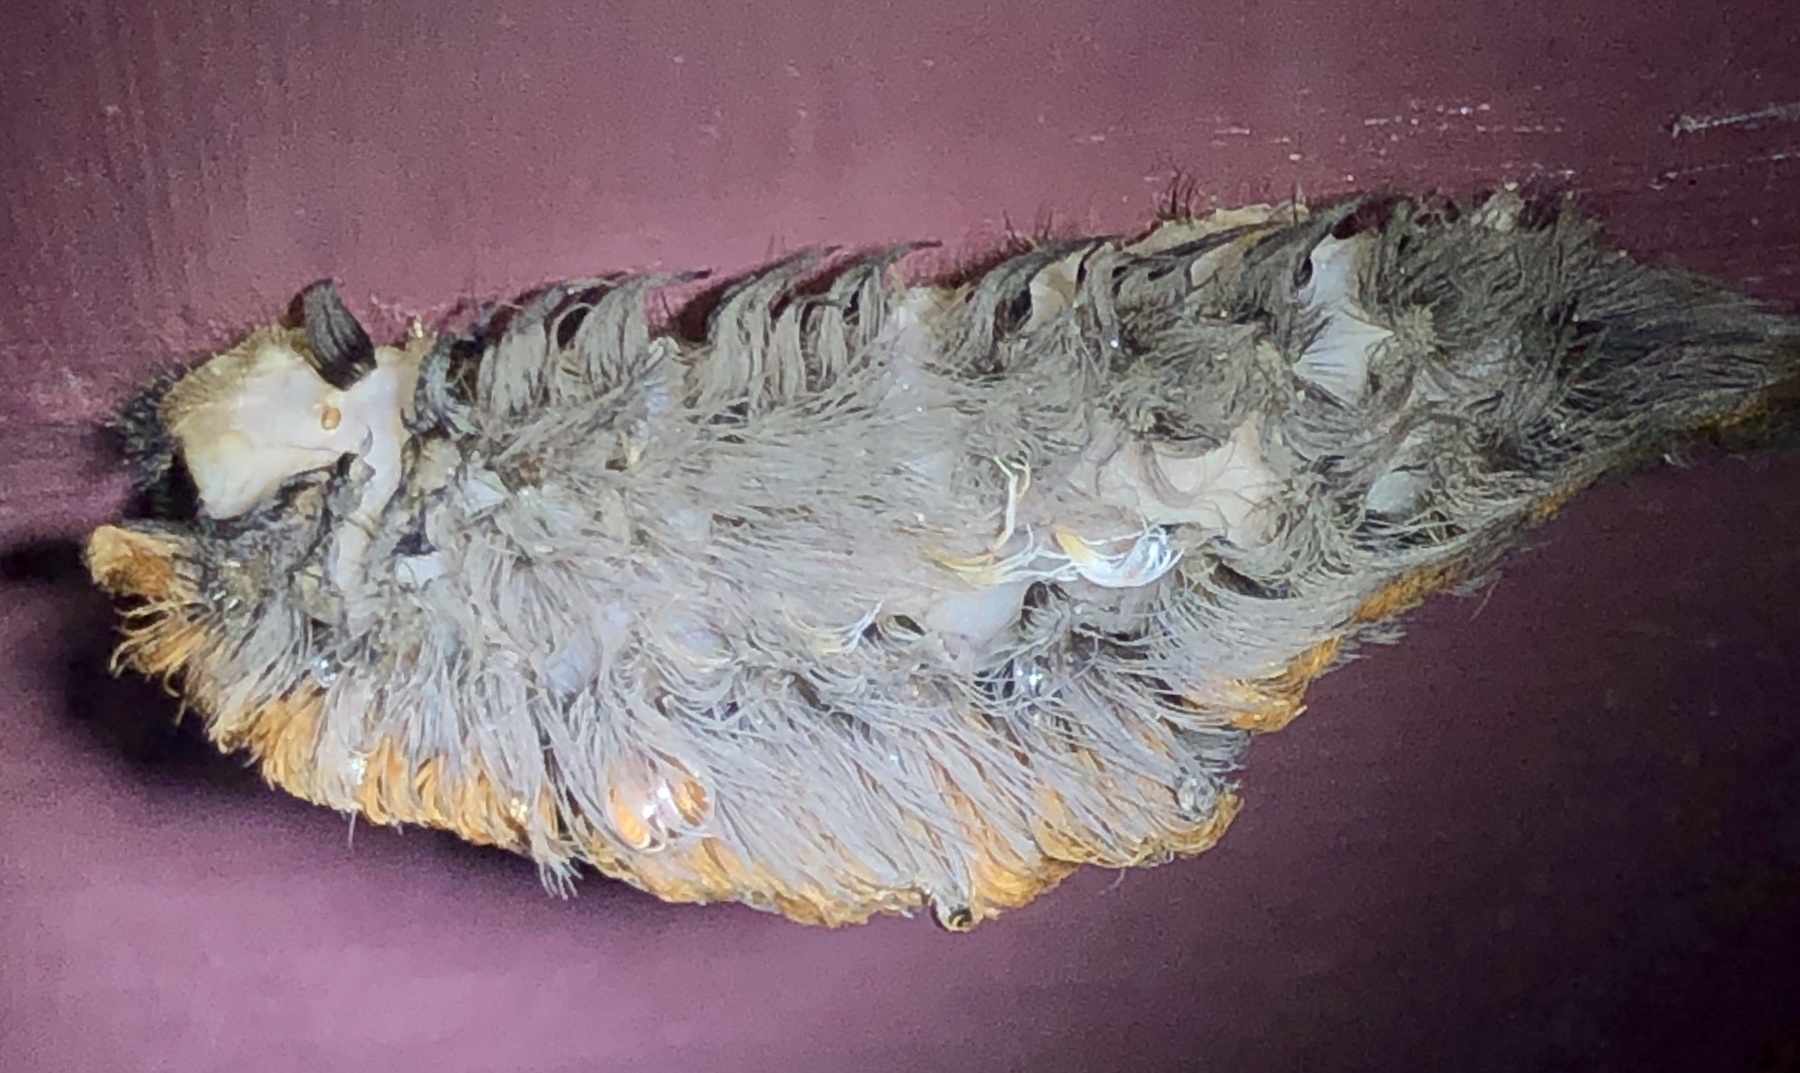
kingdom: Animalia
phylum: Arthropoda
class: Insecta
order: Lepidoptera
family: Megalopygidae
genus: Megalopyge
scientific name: Megalopyge opercularis
